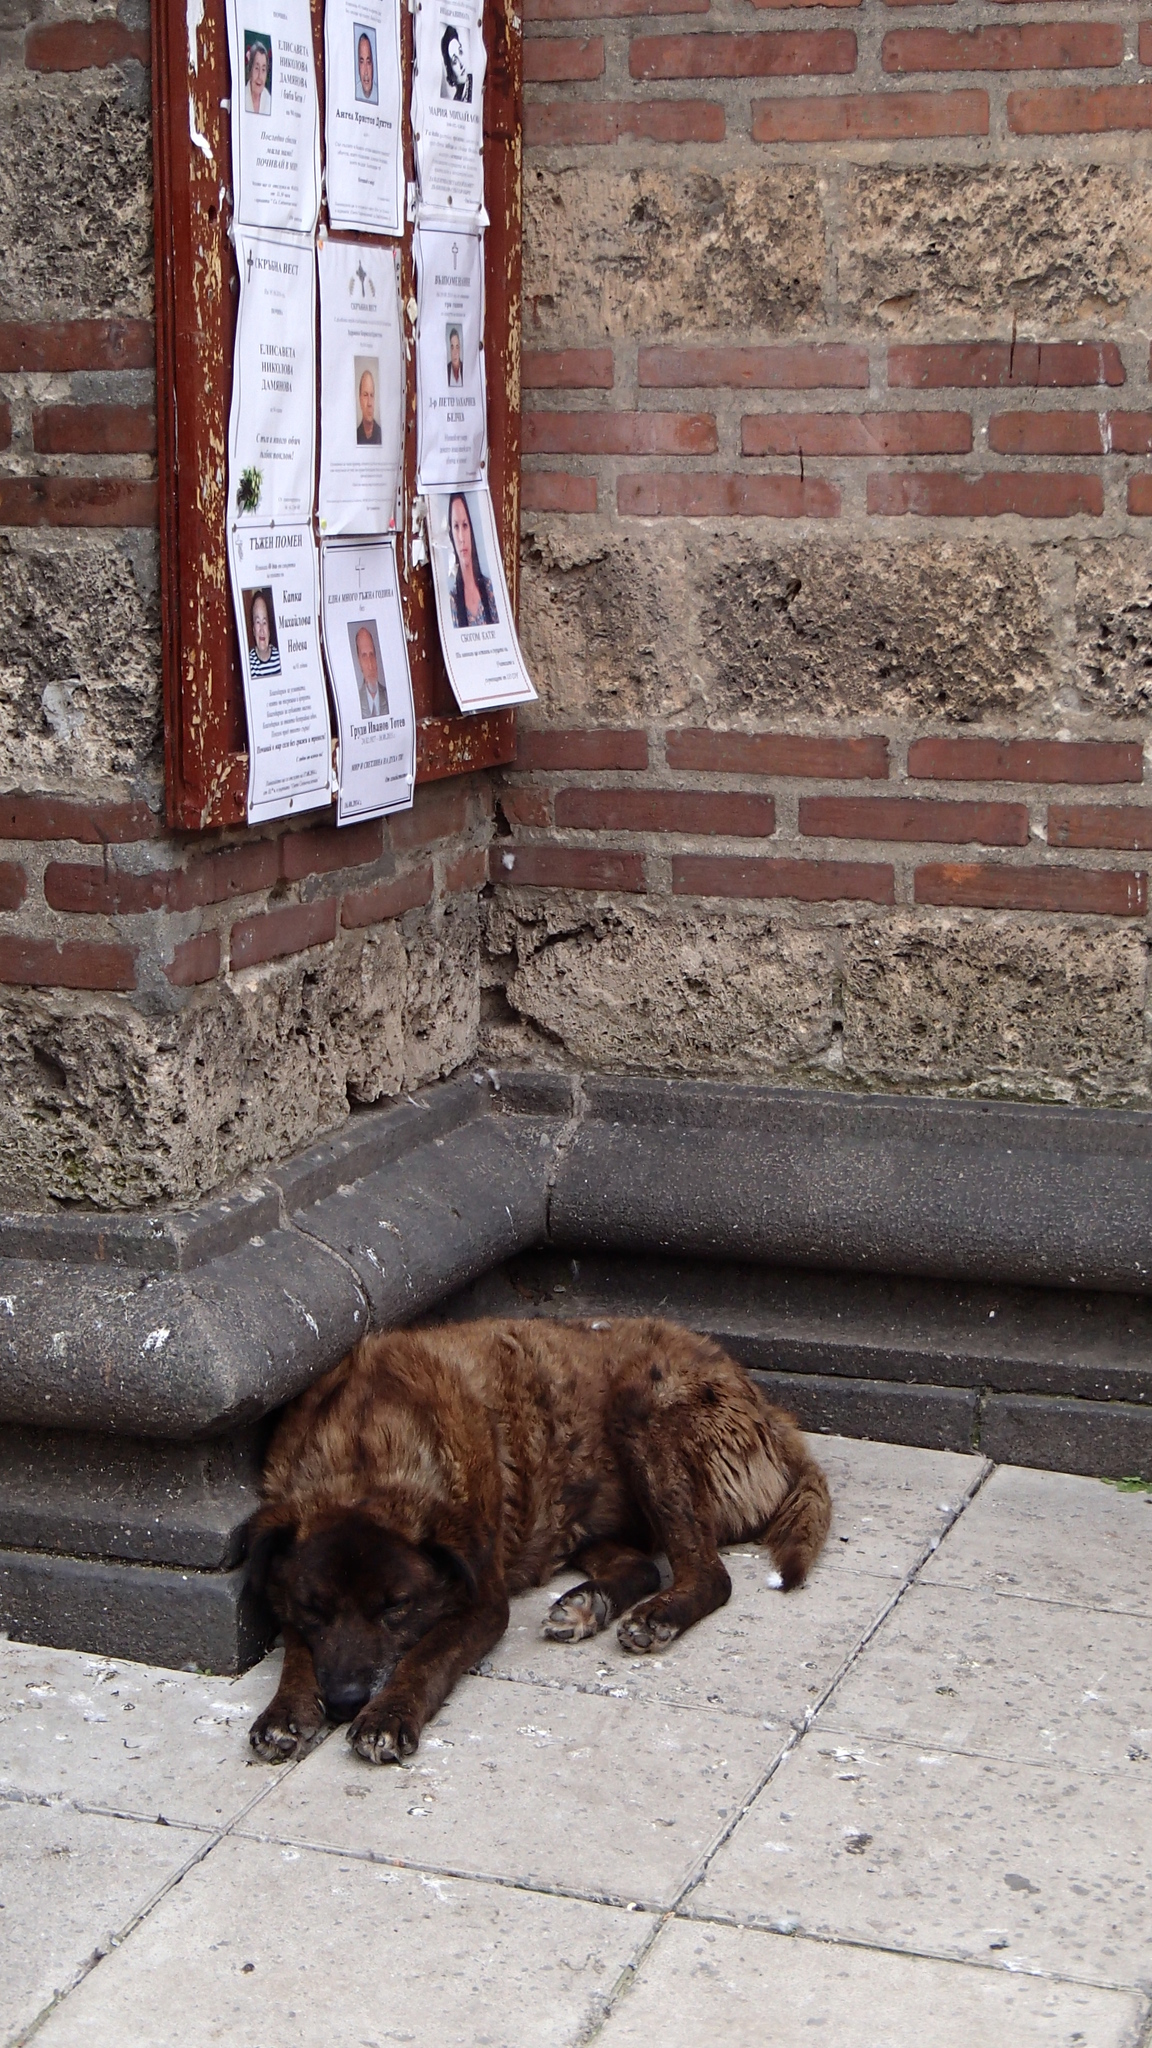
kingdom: Animalia
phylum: Chordata
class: Mammalia
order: Carnivora
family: Canidae
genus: Canis
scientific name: Canis lupus
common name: Gray wolf
